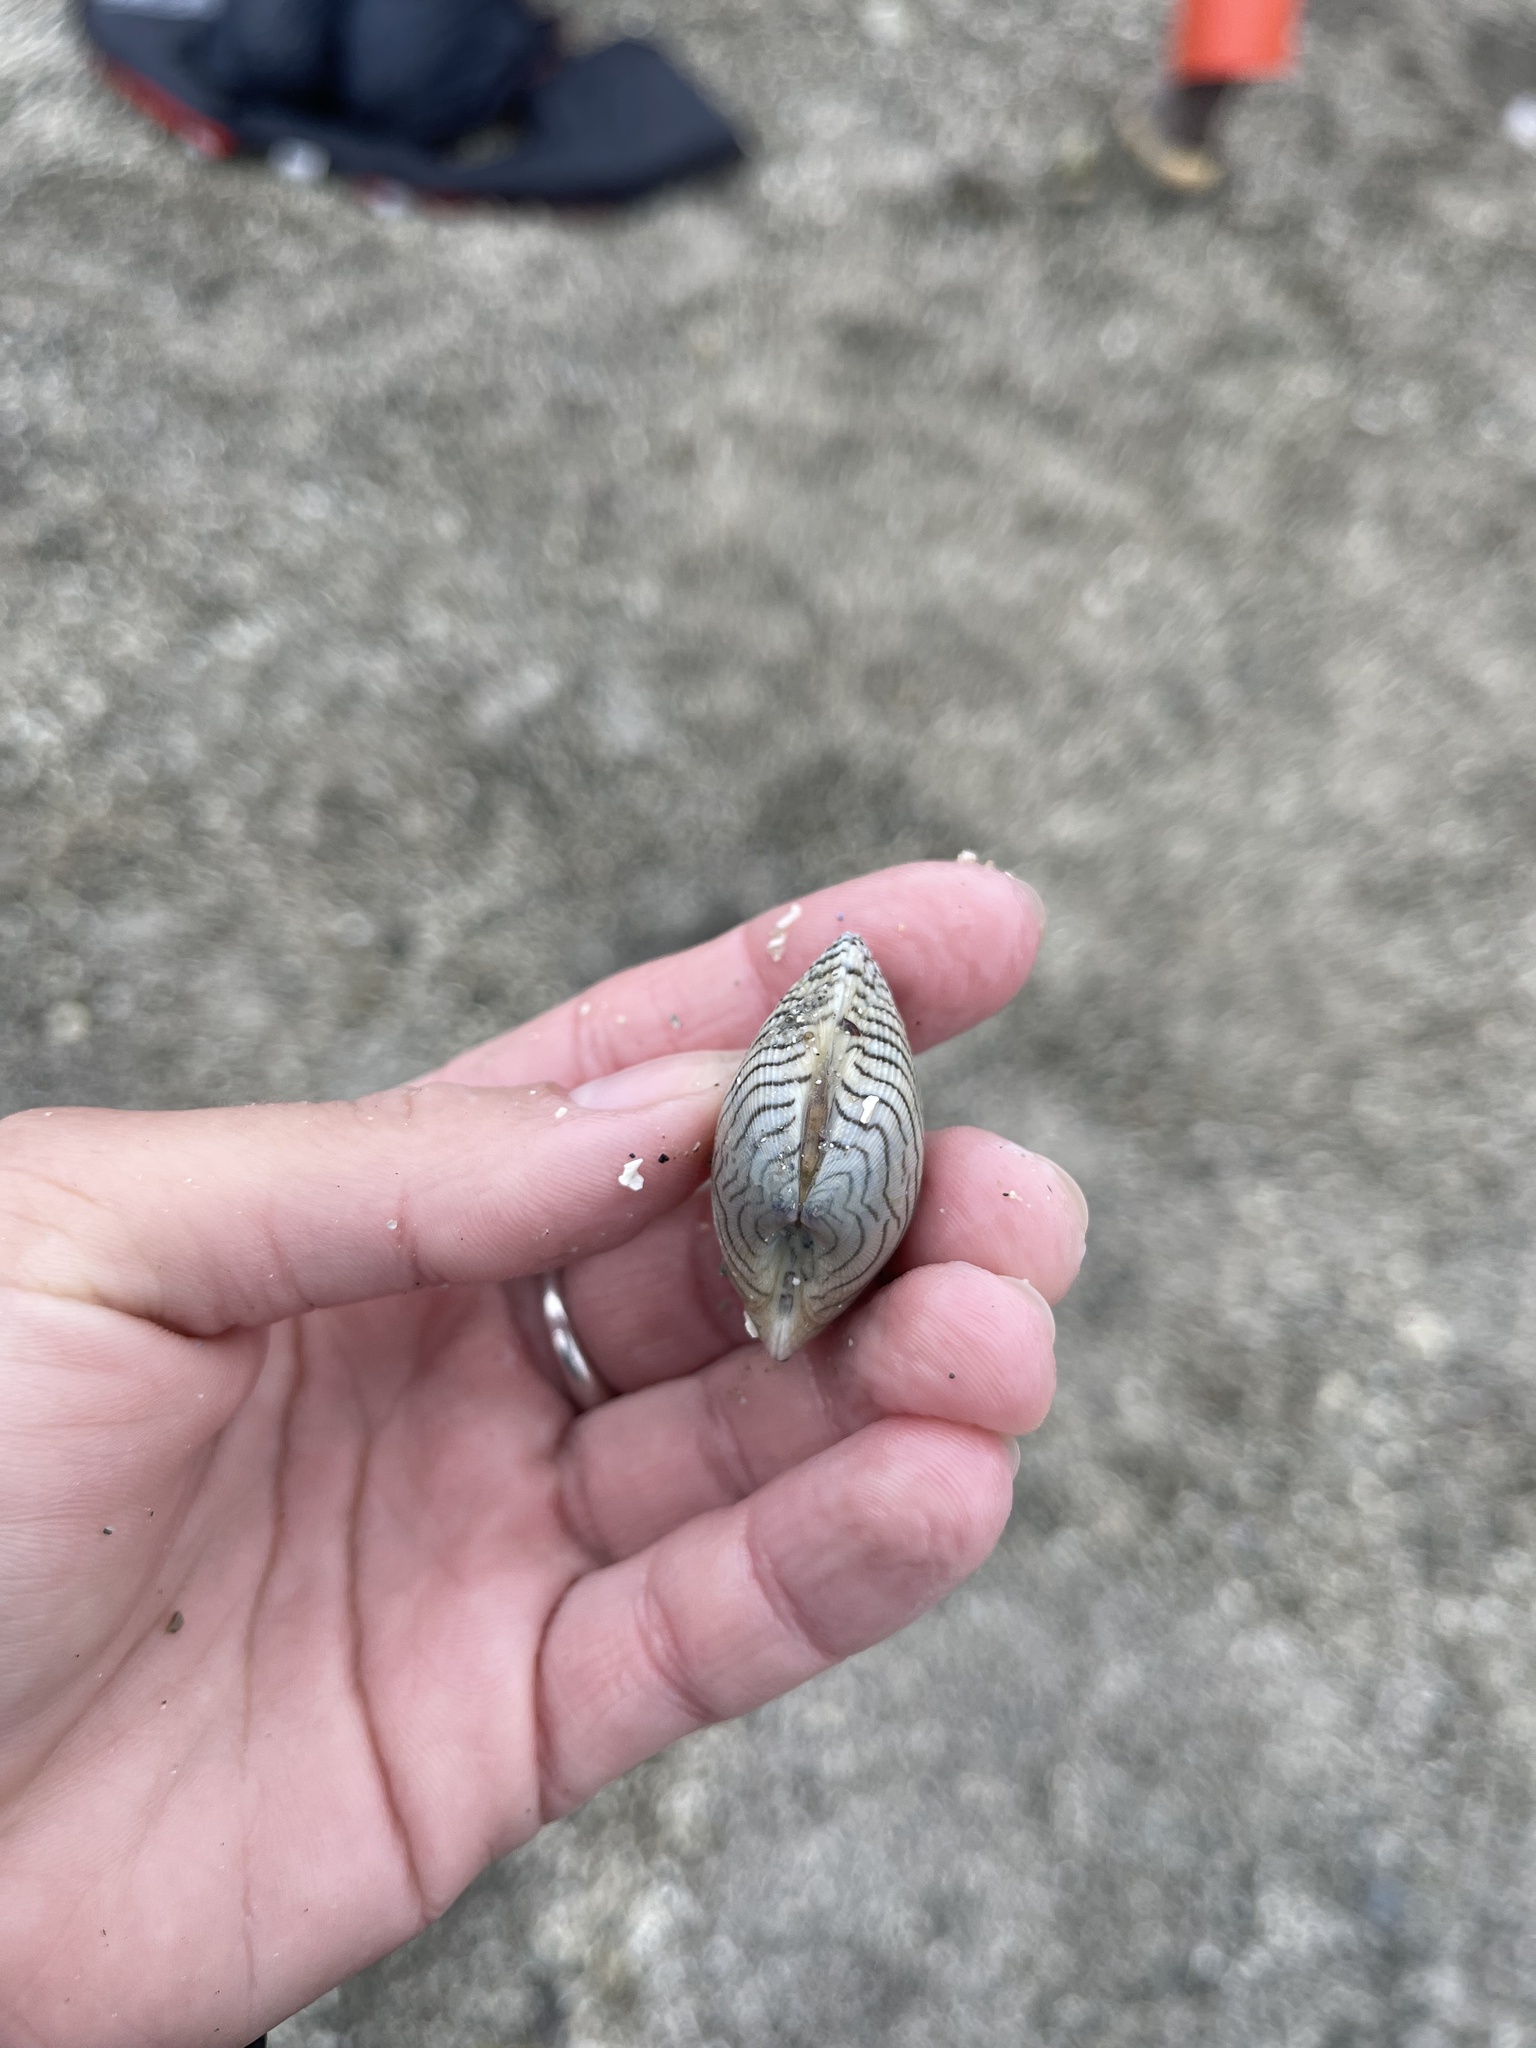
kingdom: Animalia
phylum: Mollusca
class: Bivalvia
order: Venerida
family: Veneridae
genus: Ruditapes
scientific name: Ruditapes philippinarum
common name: Manila clam
